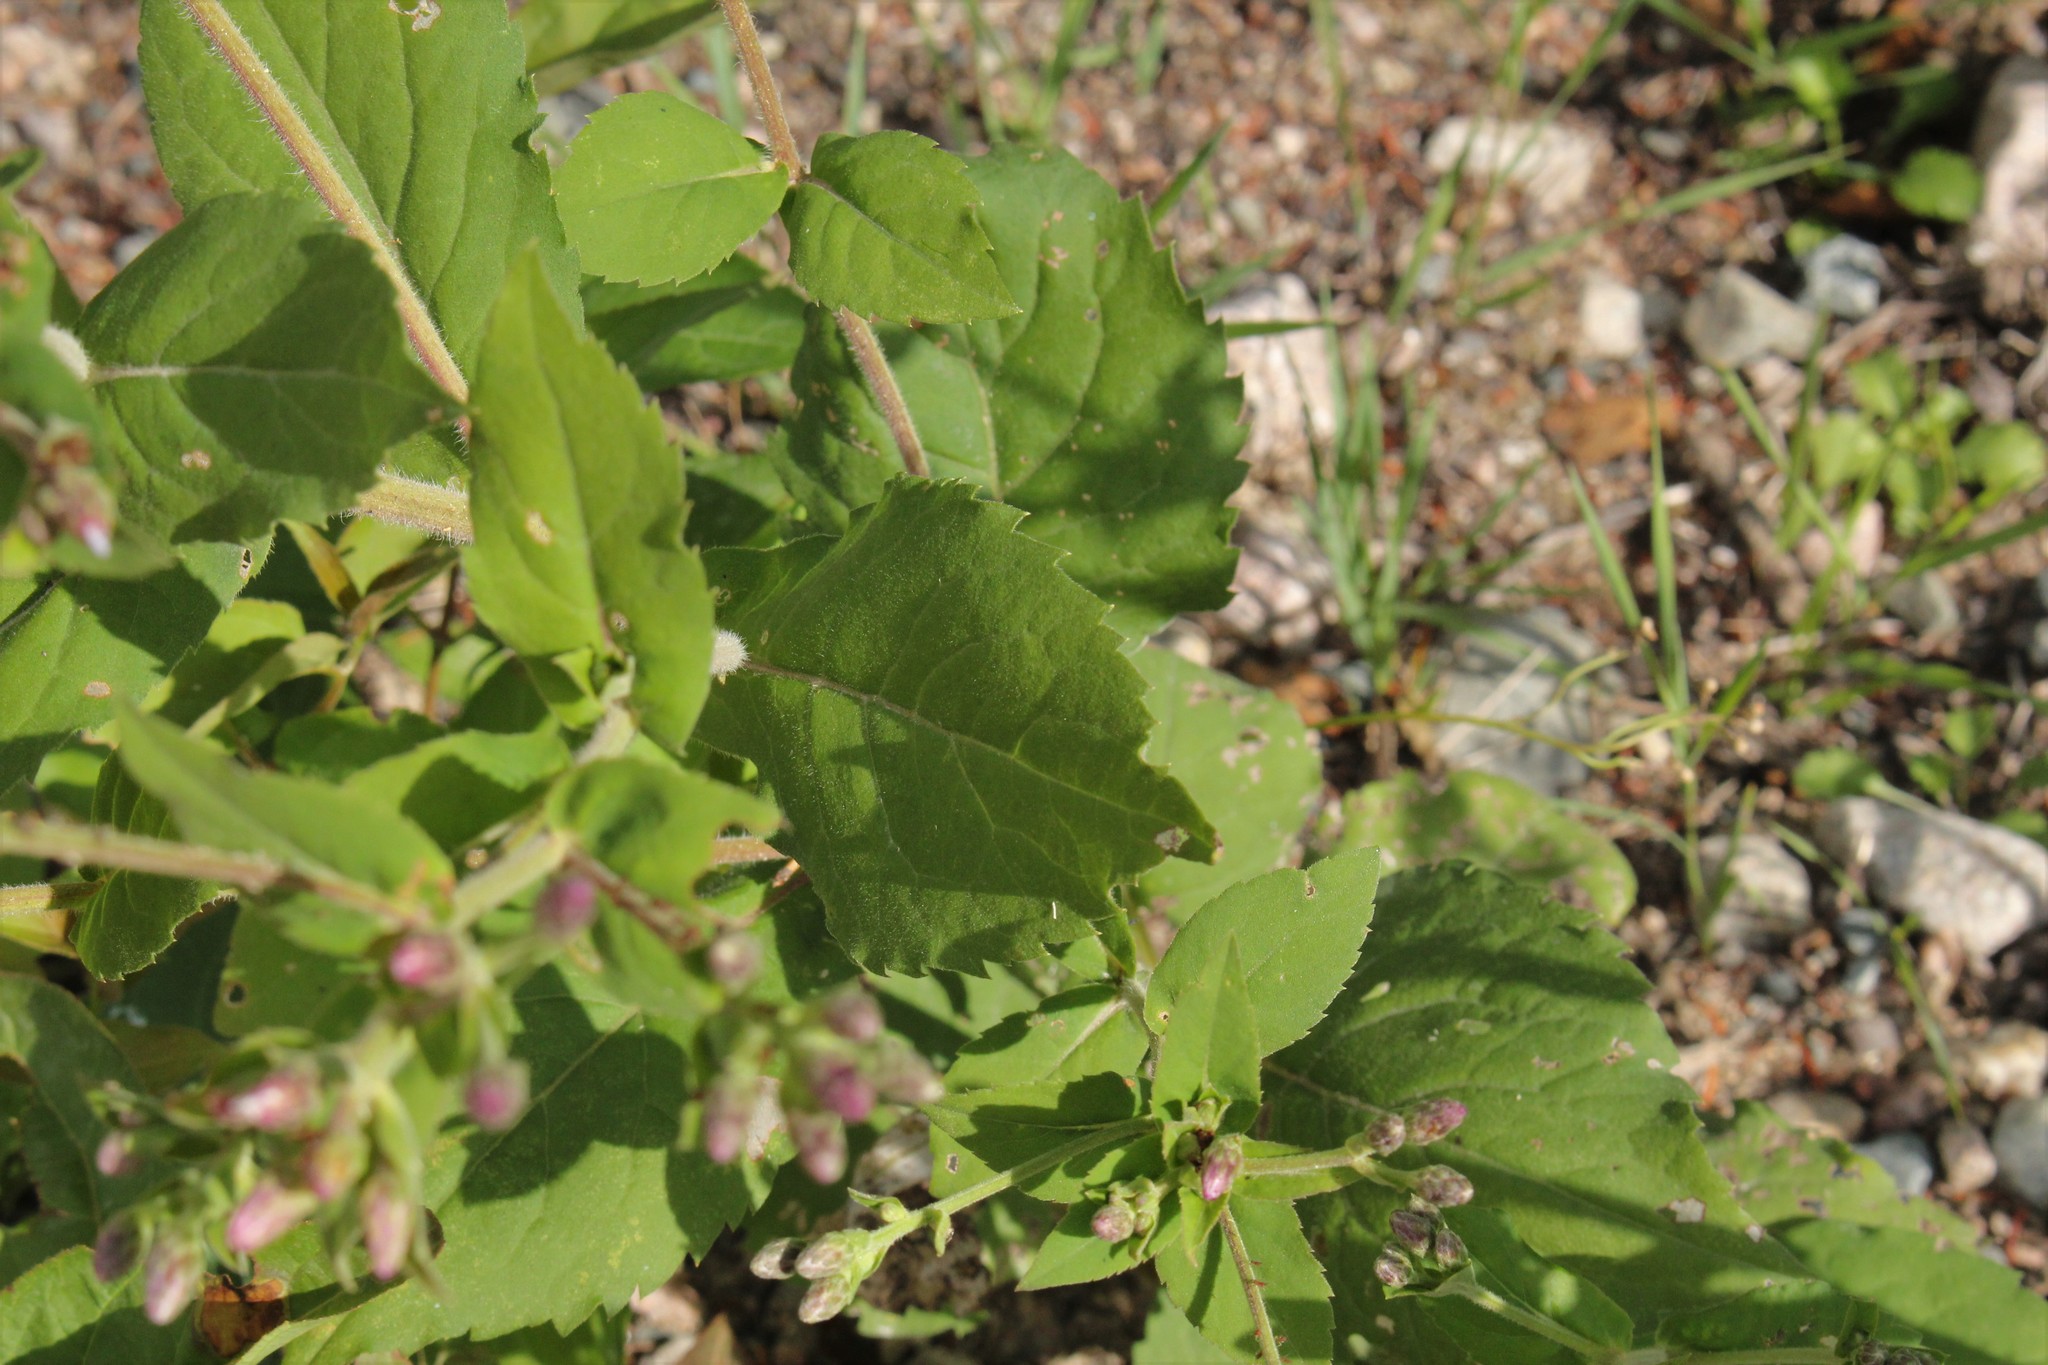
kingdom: Plantae
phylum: Tracheophyta
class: Magnoliopsida
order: Asterales
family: Asteraceae
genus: Eurybia
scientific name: Eurybia macrophylla
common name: Big-leaved aster
